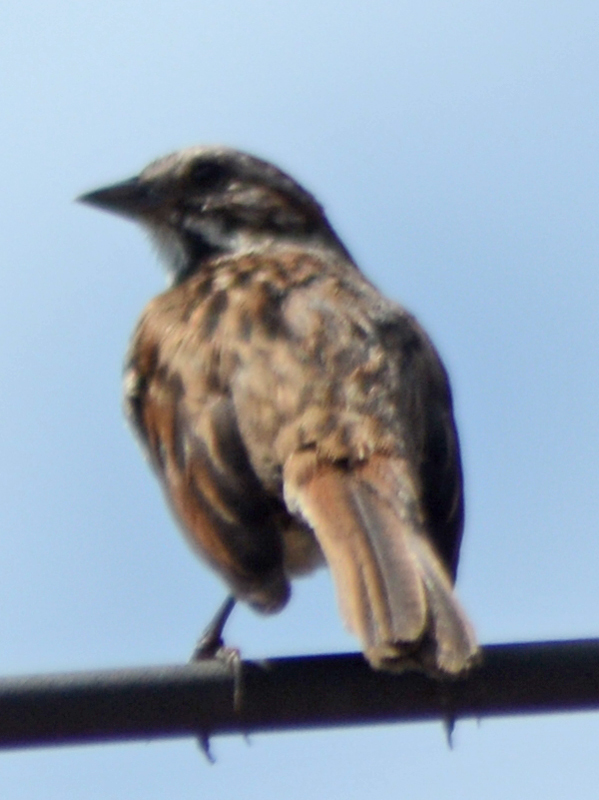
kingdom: Animalia
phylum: Chordata
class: Aves
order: Passeriformes
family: Passerellidae
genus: Melospiza
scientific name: Melospiza melodia
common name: Song sparrow
